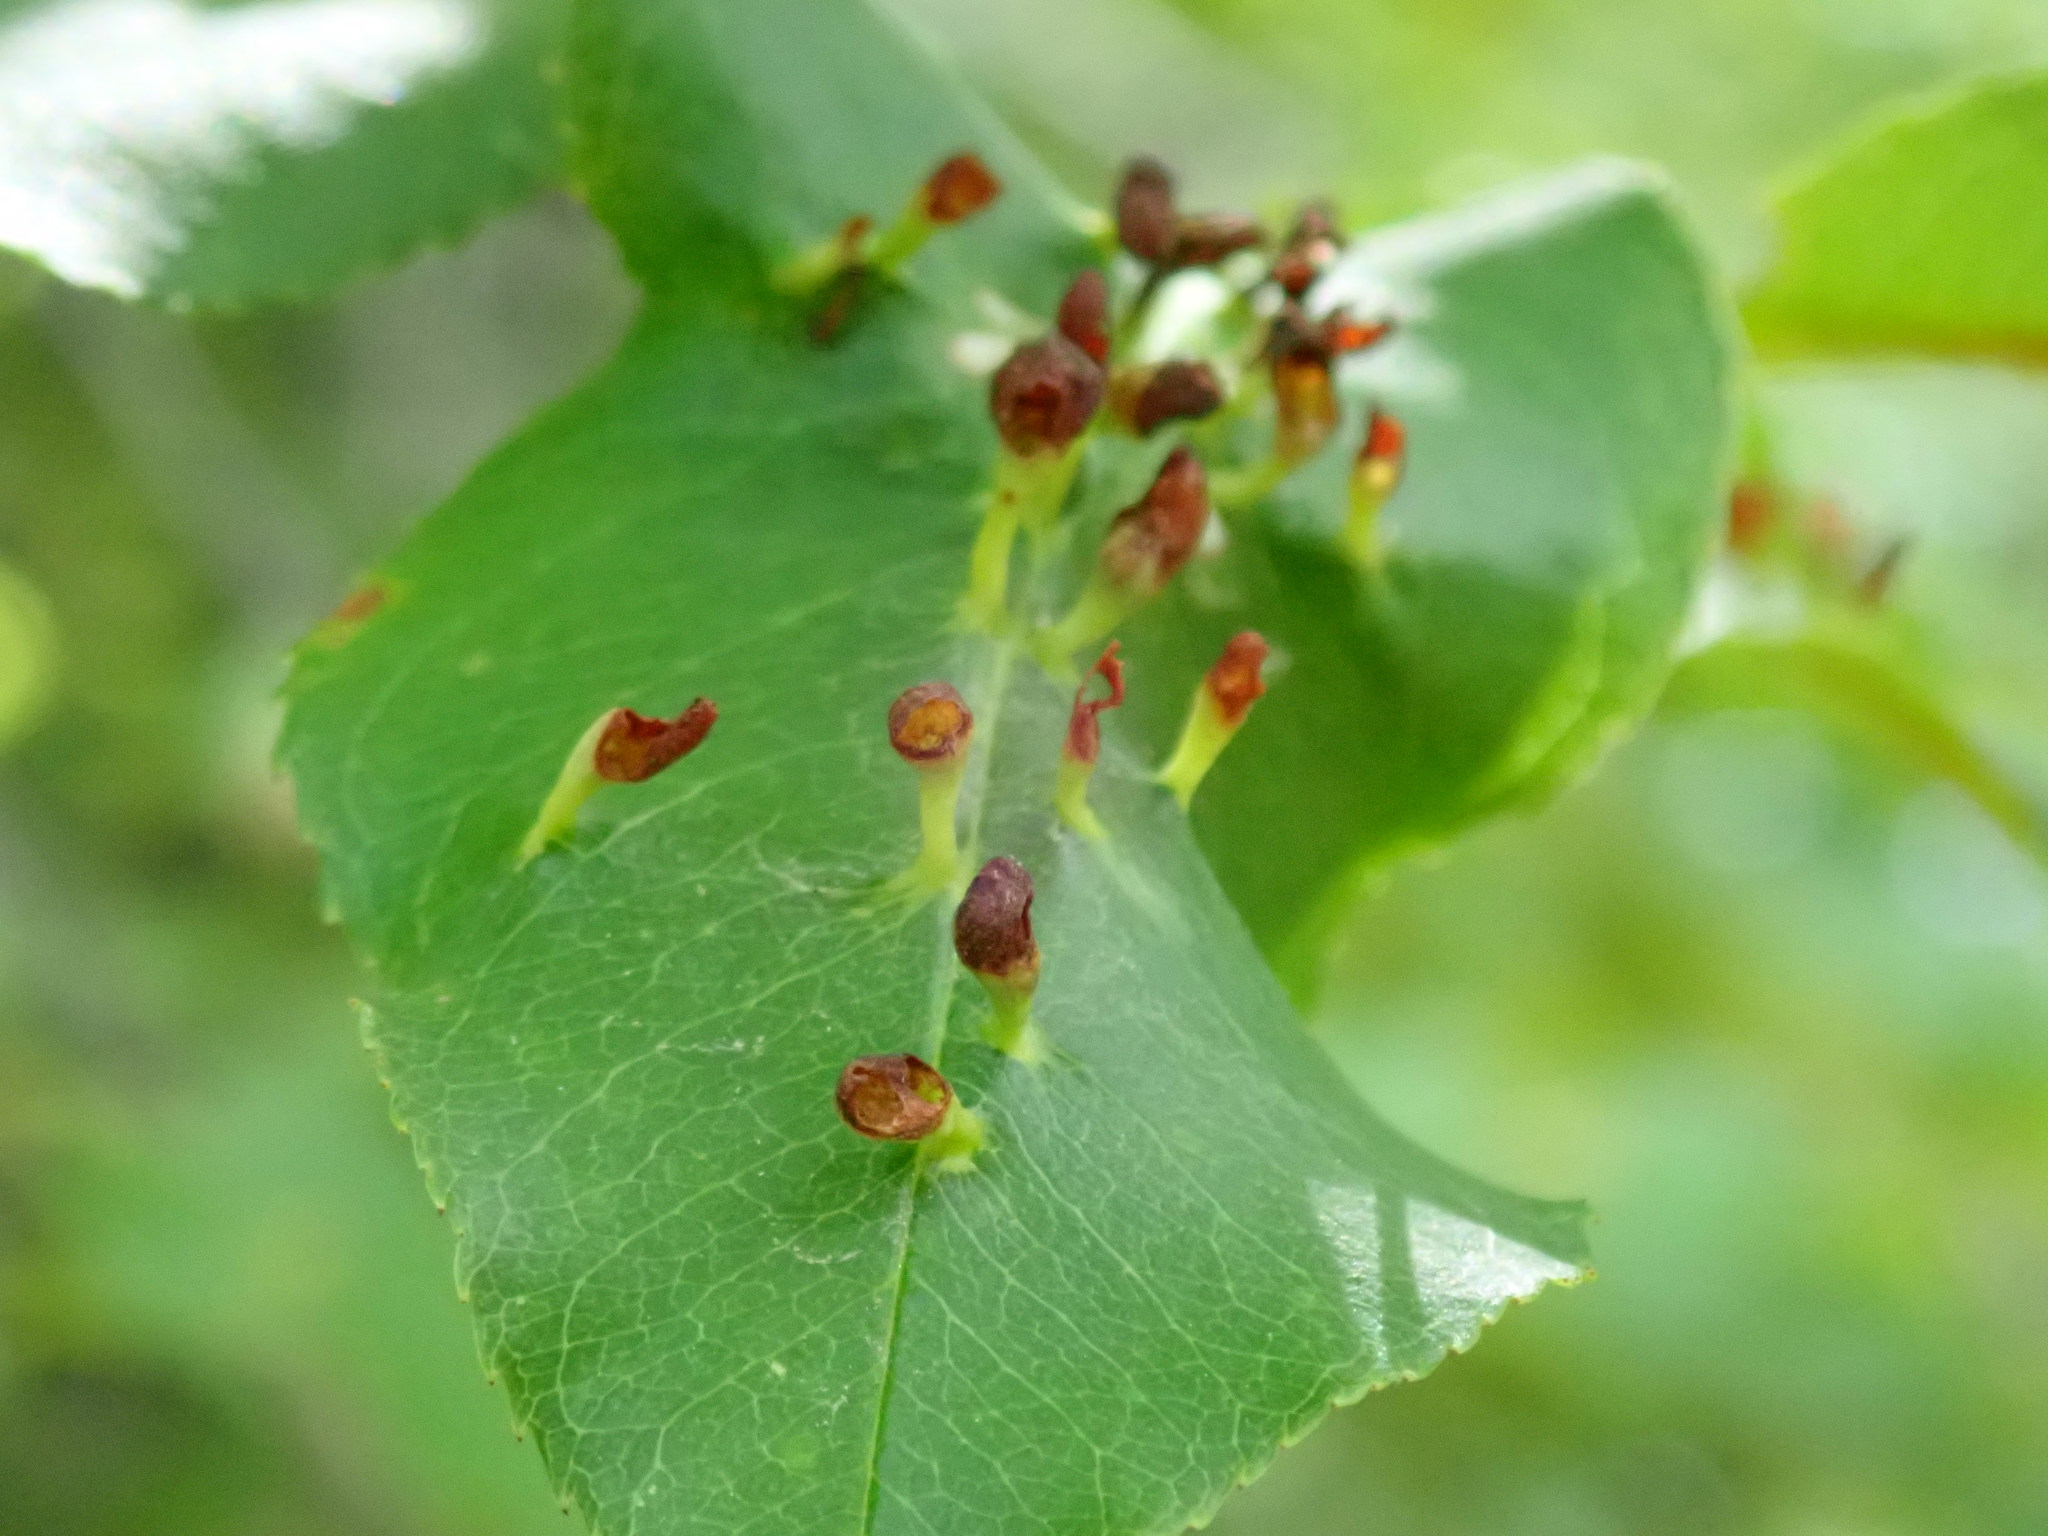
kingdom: Animalia
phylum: Arthropoda
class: Arachnida
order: Trombidiformes
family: Eriophyidae
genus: Eriophyes
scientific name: Eriophyes
